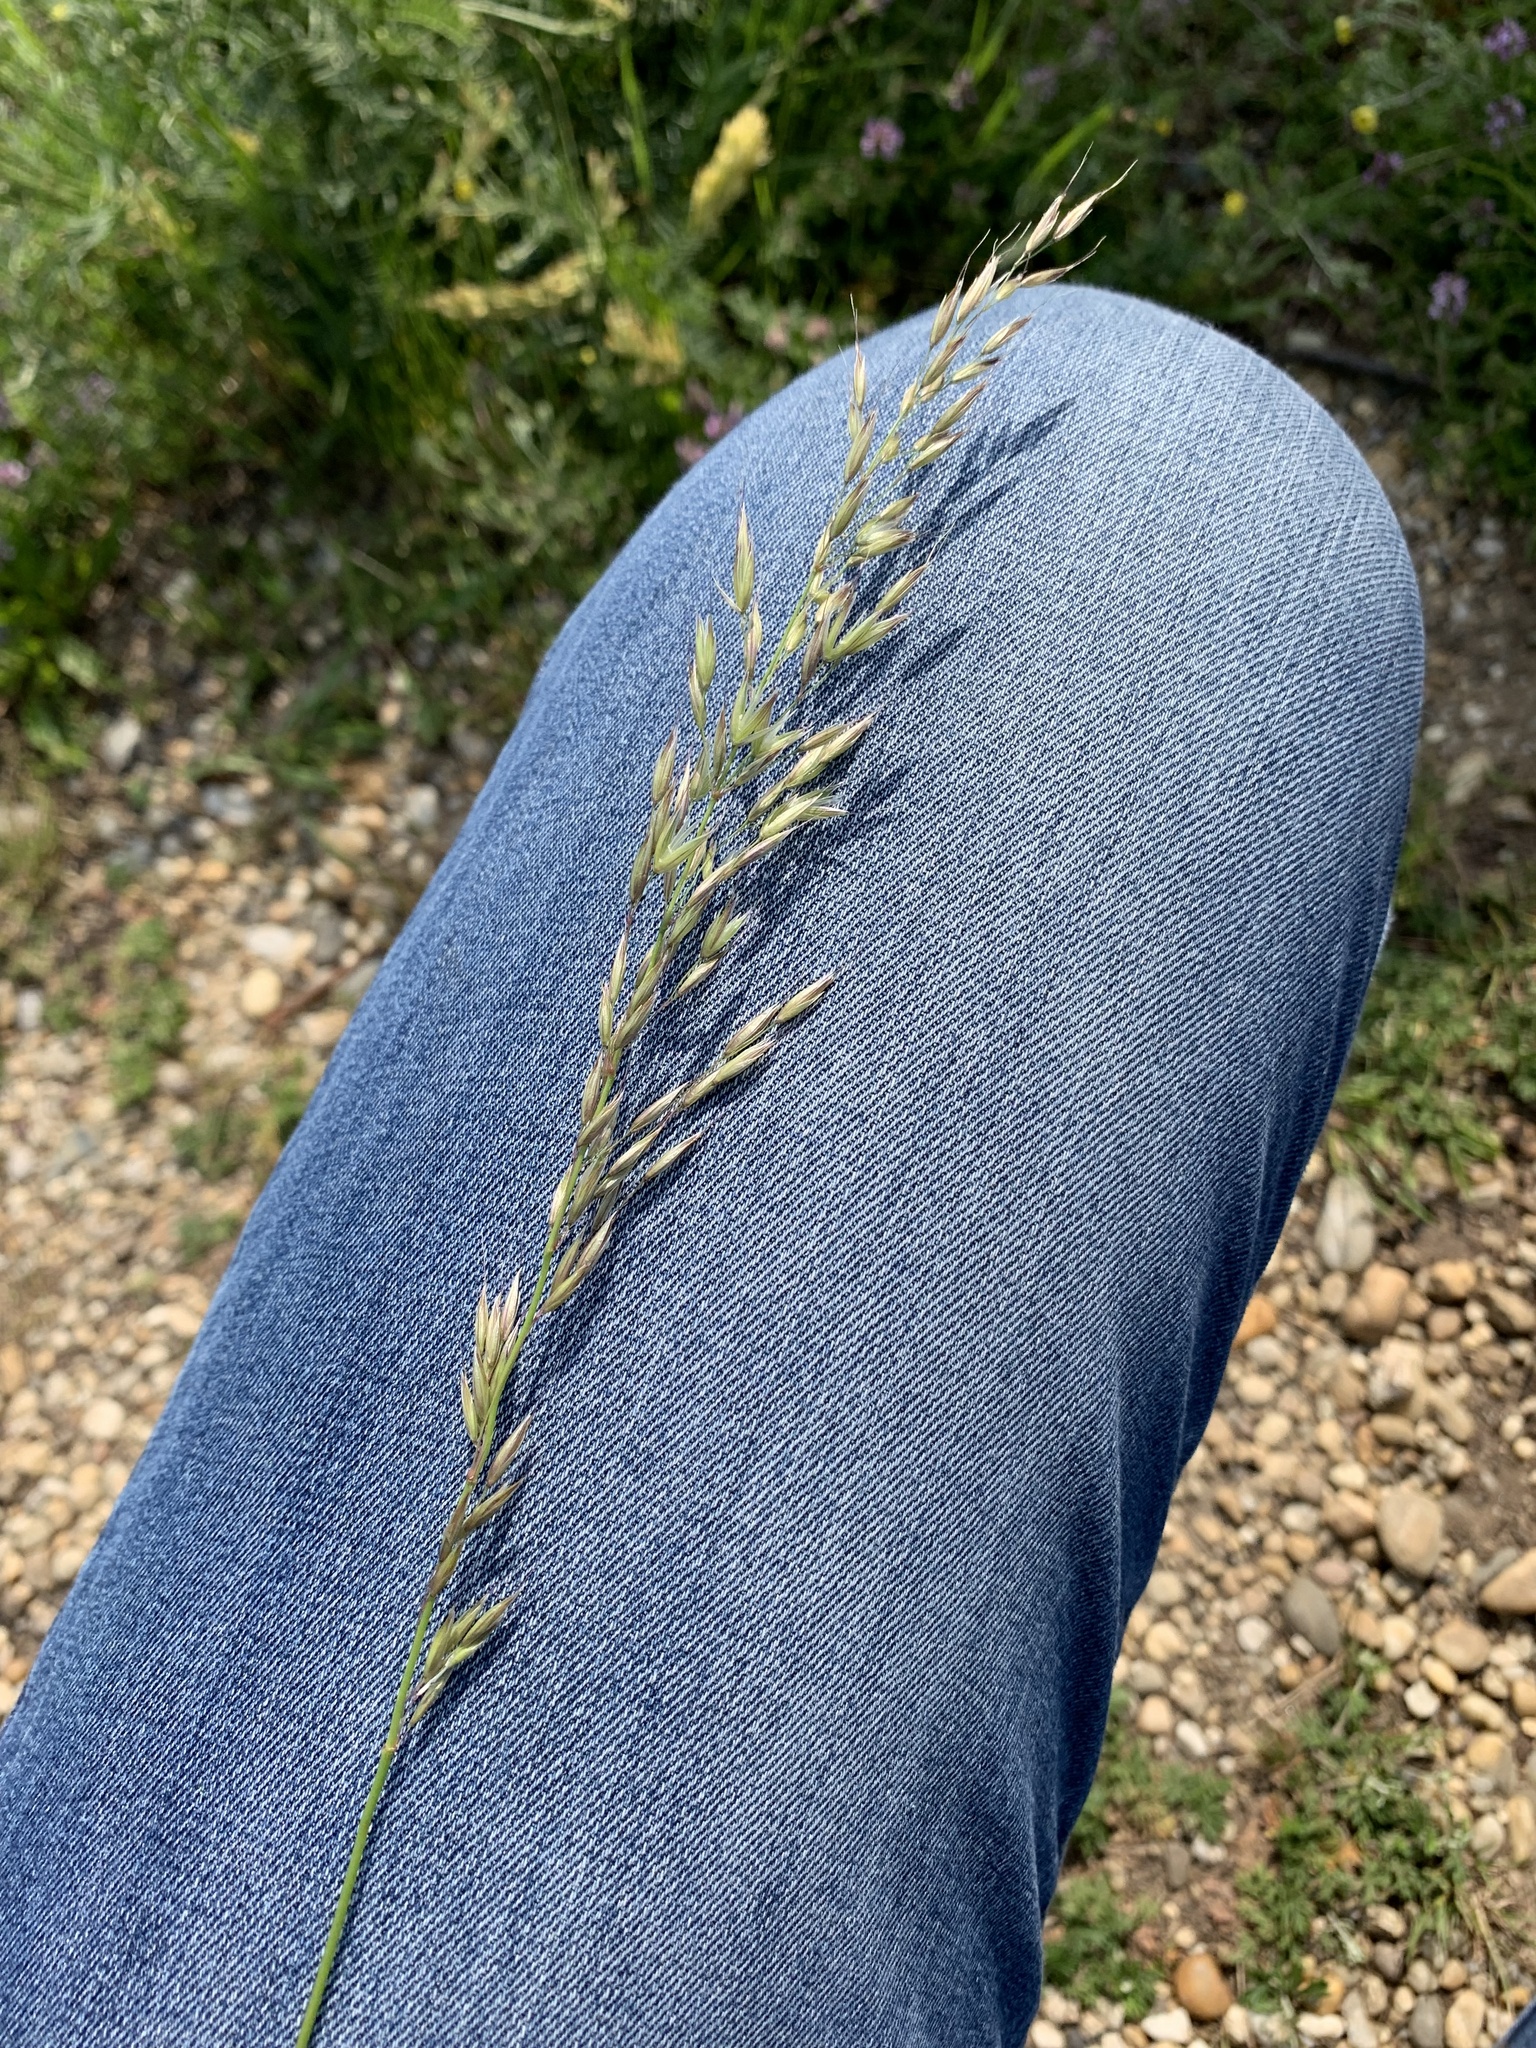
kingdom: Plantae
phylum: Tracheophyta
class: Liliopsida
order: Poales
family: Poaceae
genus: Arrhenatherum
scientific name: Arrhenatherum elatius
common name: Tall oatgrass
